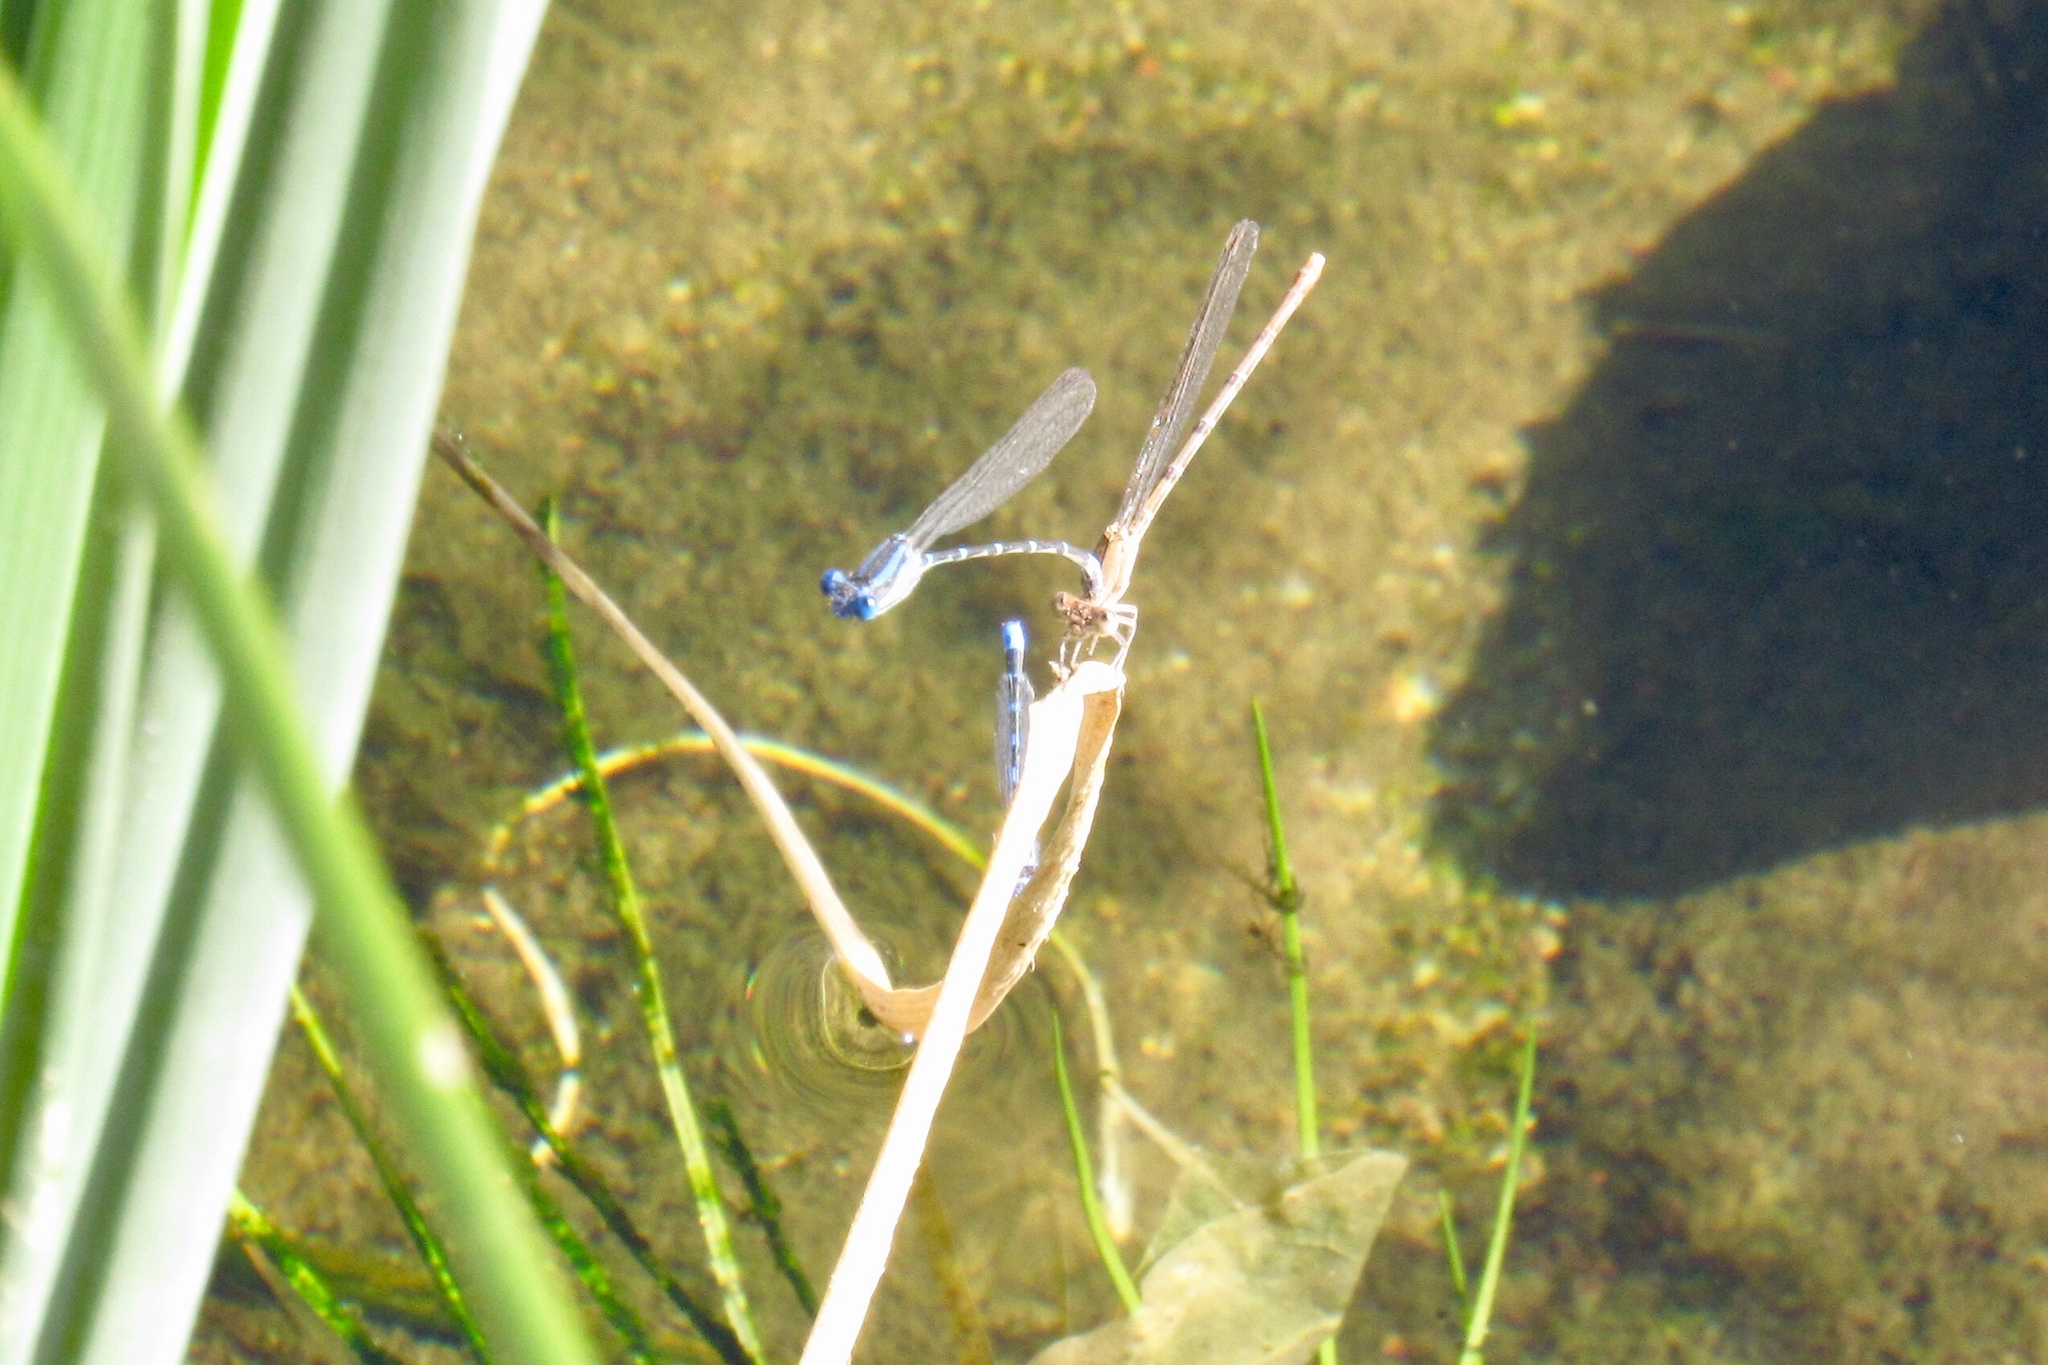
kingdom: Animalia
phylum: Arthropoda
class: Insecta
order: Odonata
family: Coenagrionidae
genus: Argia
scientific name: Argia sedula
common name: Blue-ringed dancer
